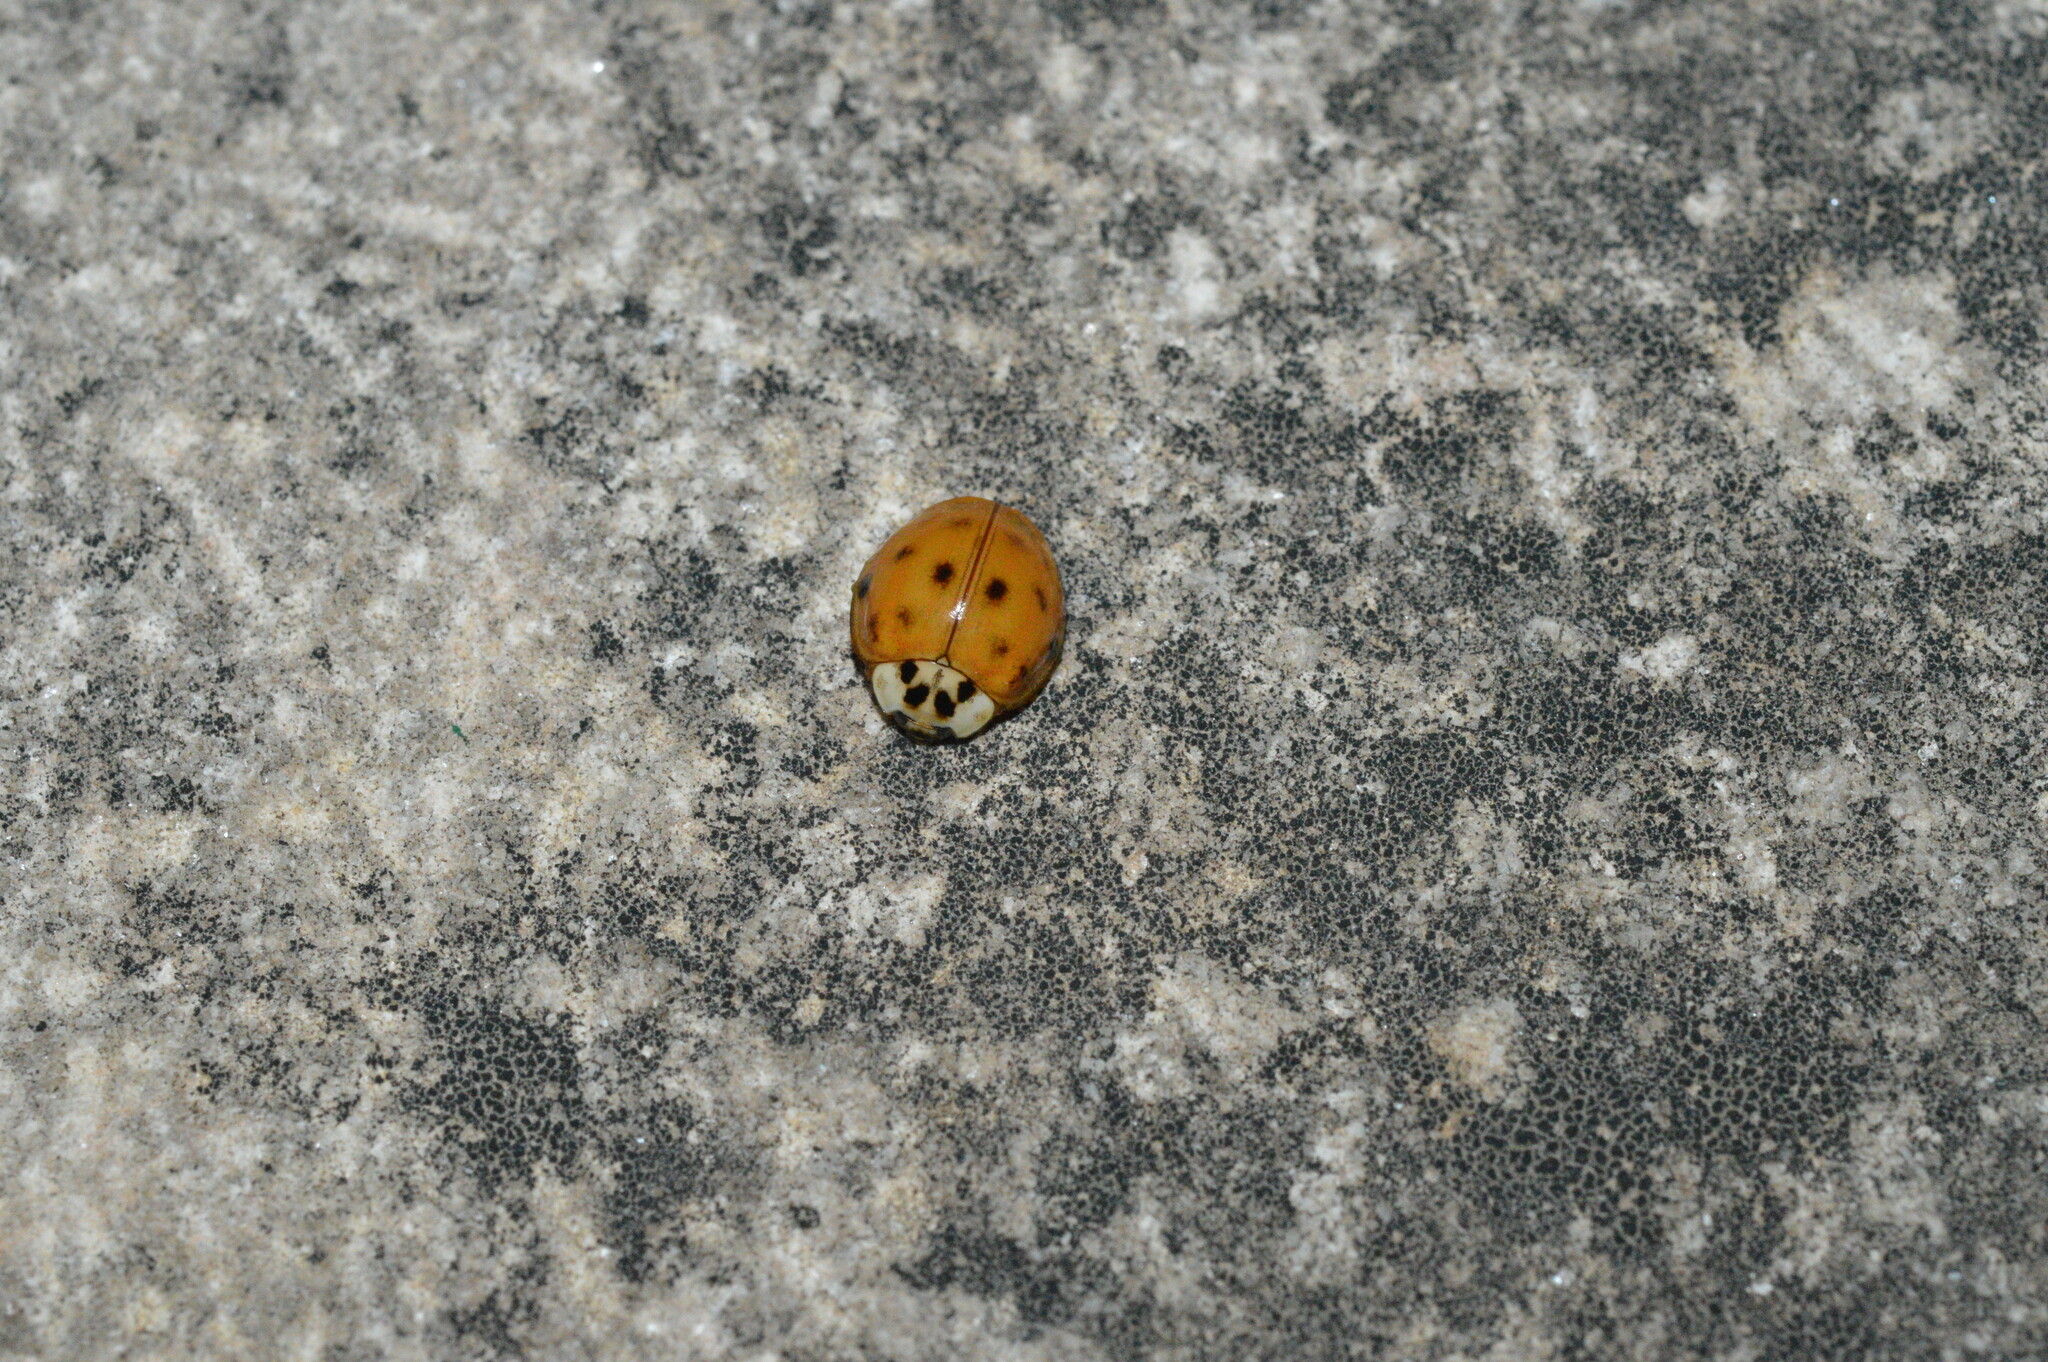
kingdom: Animalia
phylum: Arthropoda
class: Insecta
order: Coleoptera
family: Coccinellidae
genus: Harmonia
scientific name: Harmonia axyridis
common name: Harlequin ladybird
